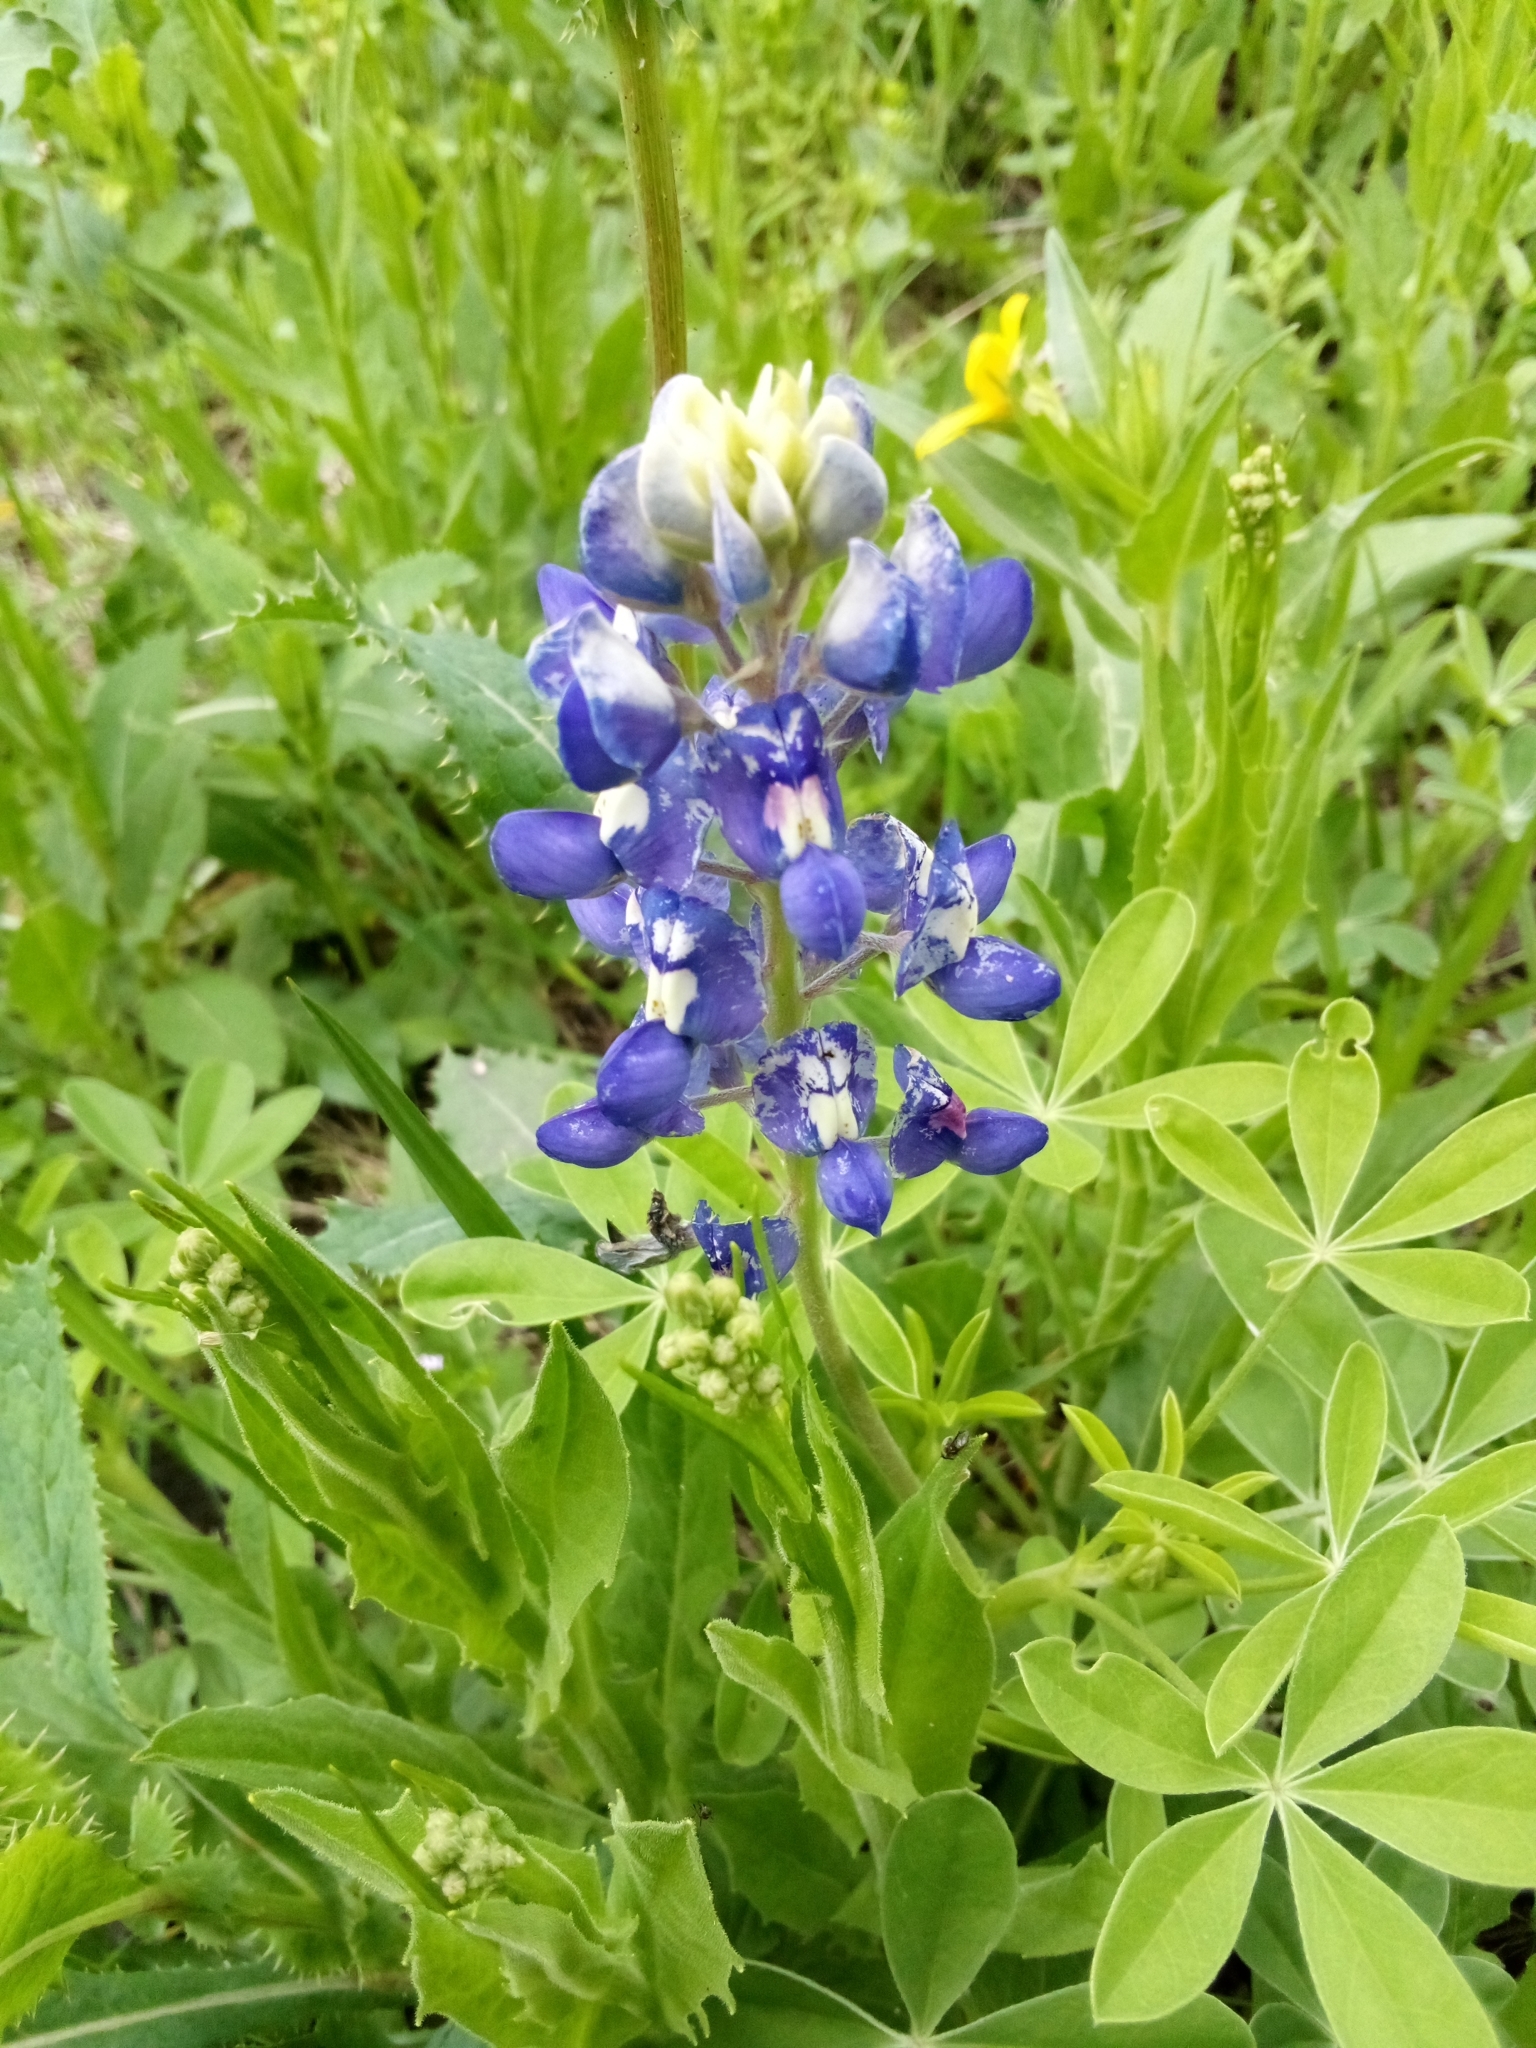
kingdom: Plantae
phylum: Tracheophyta
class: Magnoliopsida
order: Fabales
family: Fabaceae
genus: Lupinus
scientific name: Lupinus texensis
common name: Texas bluebonnet
